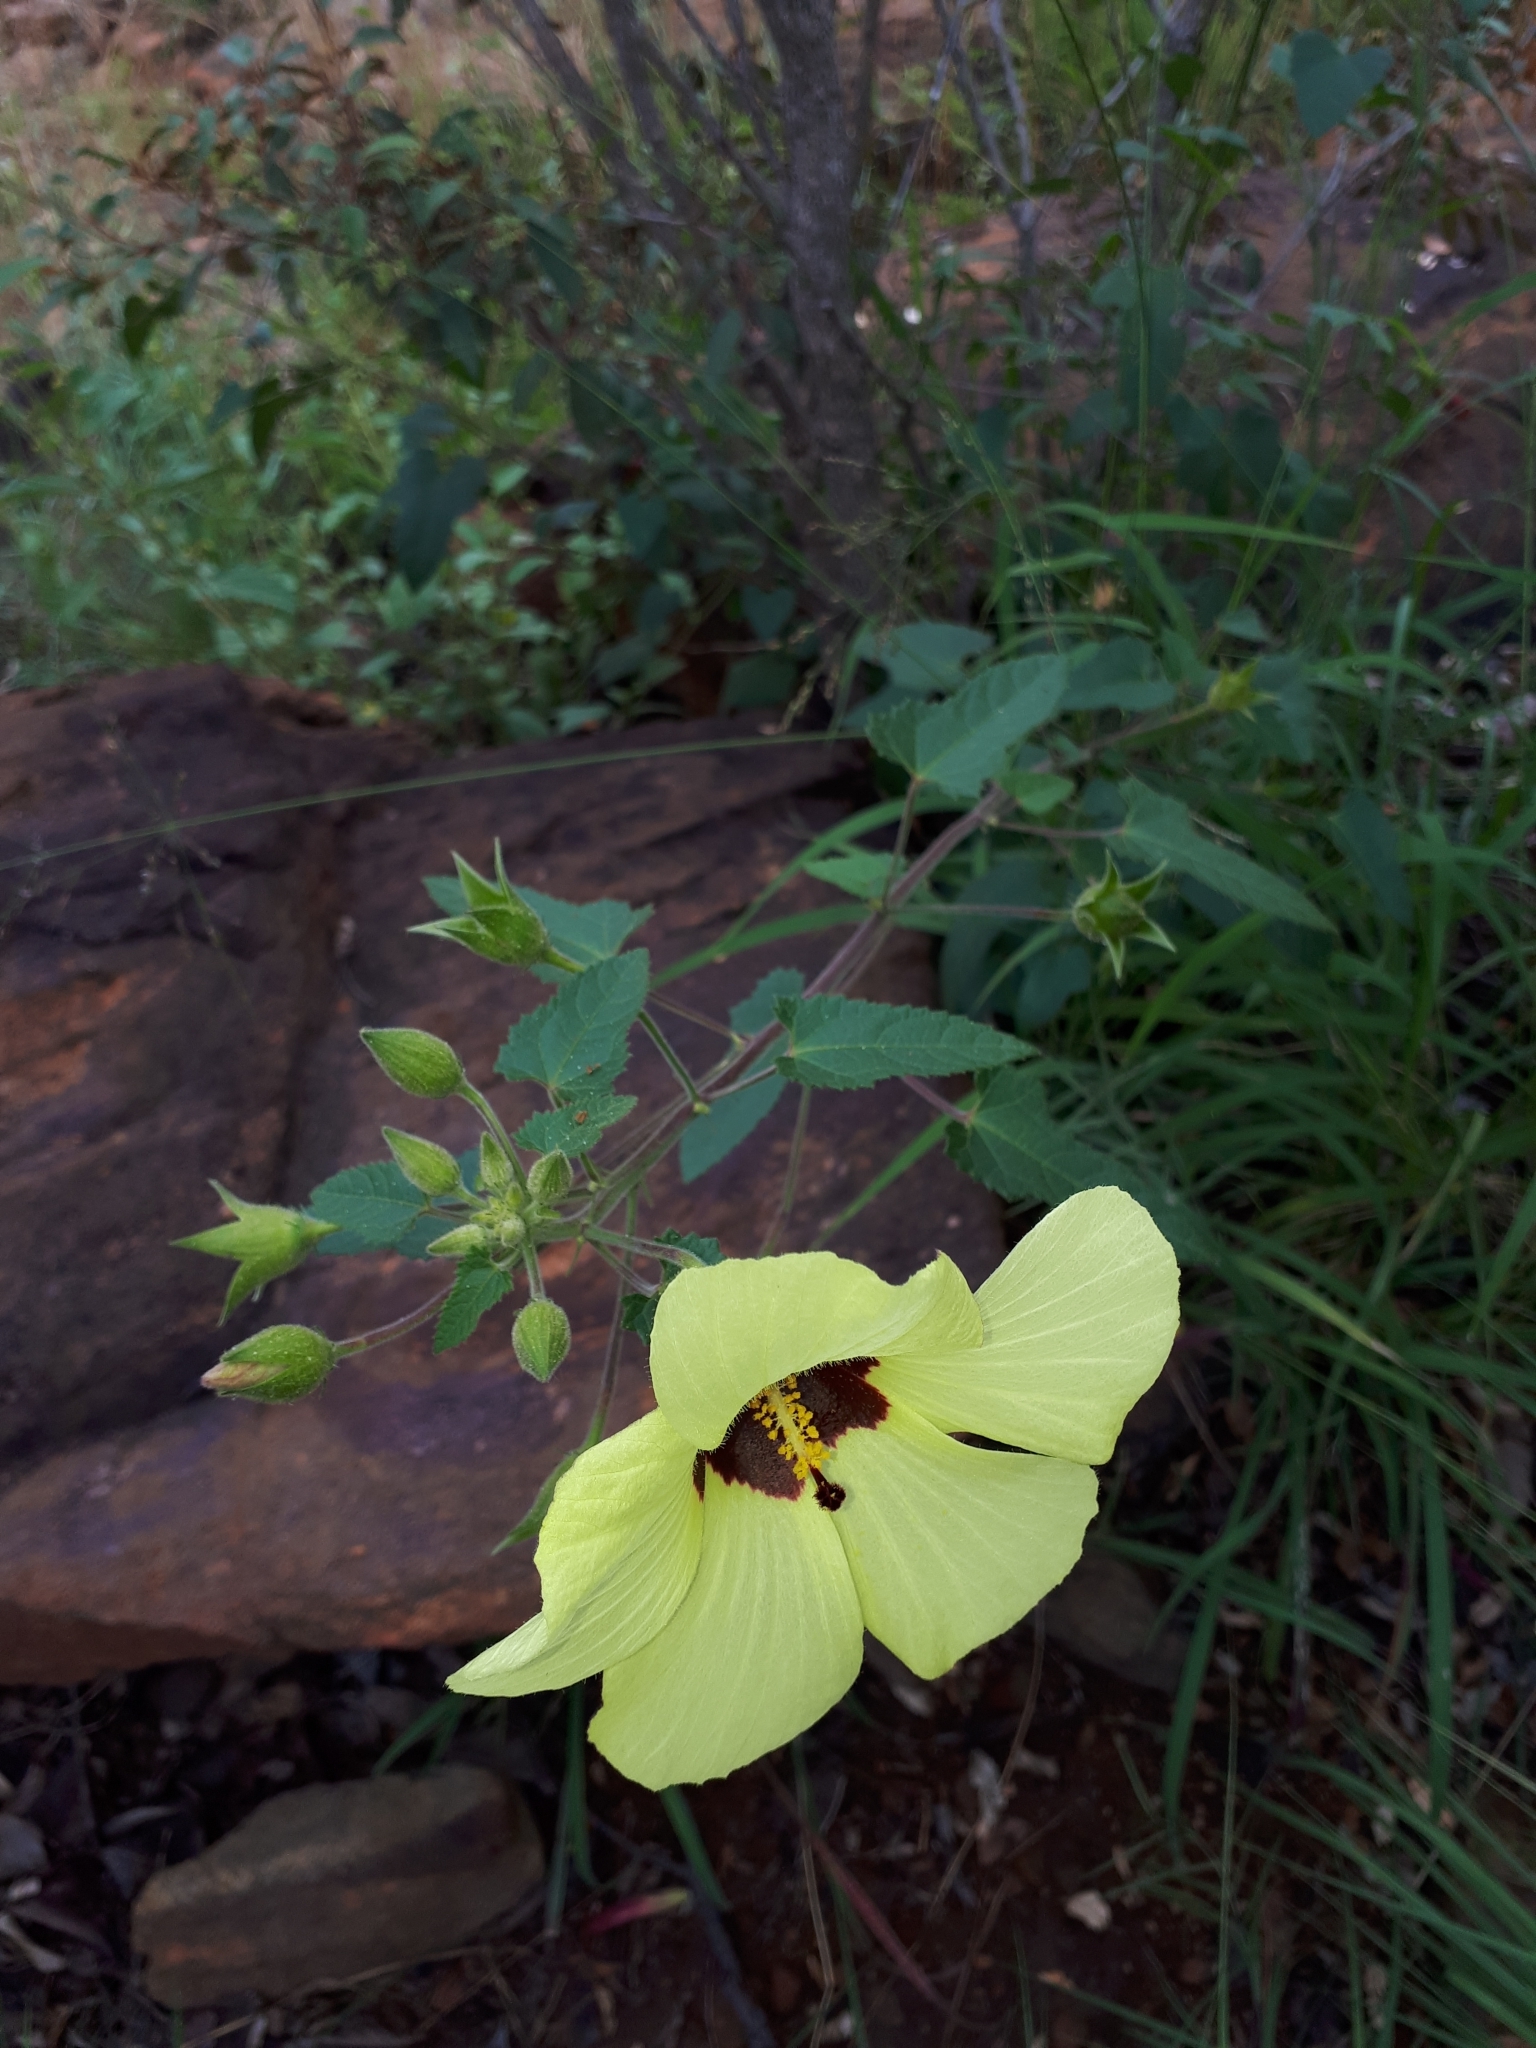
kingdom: Plantae
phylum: Tracheophyta
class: Magnoliopsida
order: Malvales
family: Malvaceae
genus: Hibiscus
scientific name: Hibiscus engleri
